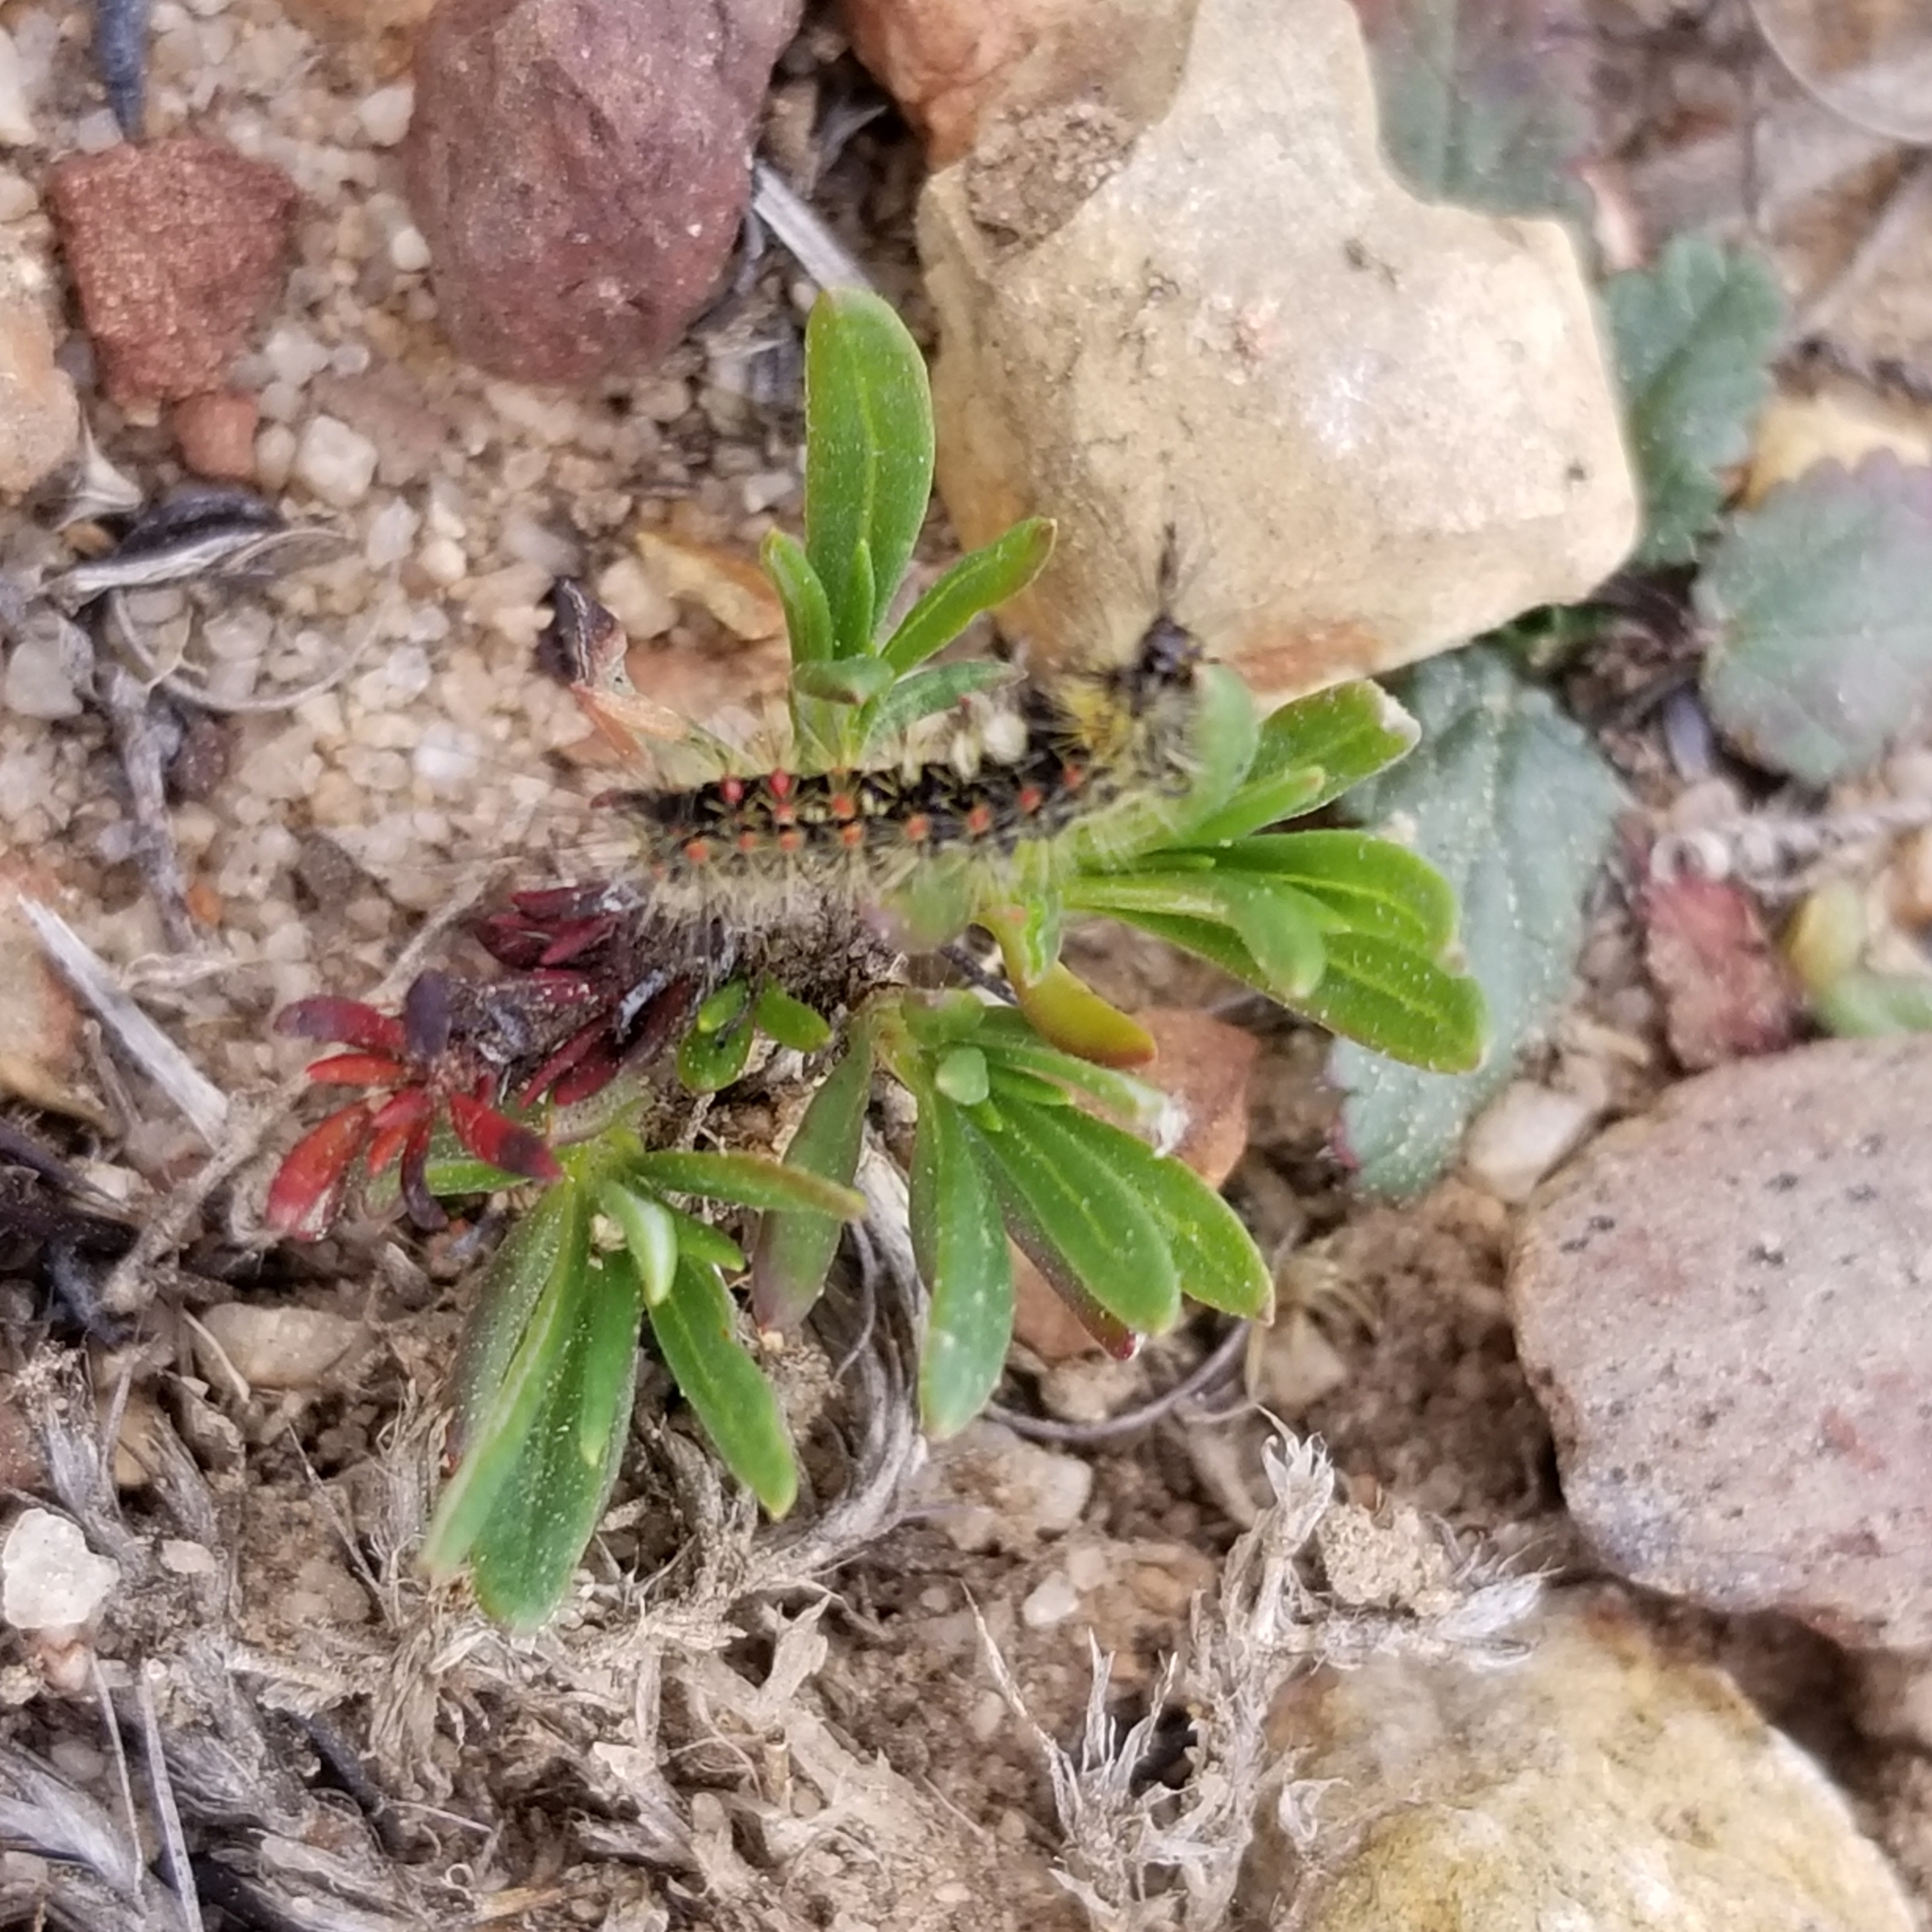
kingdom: Animalia
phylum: Arthropoda
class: Insecta
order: Lepidoptera
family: Erebidae
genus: Orgyia
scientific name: Orgyia vetusta
